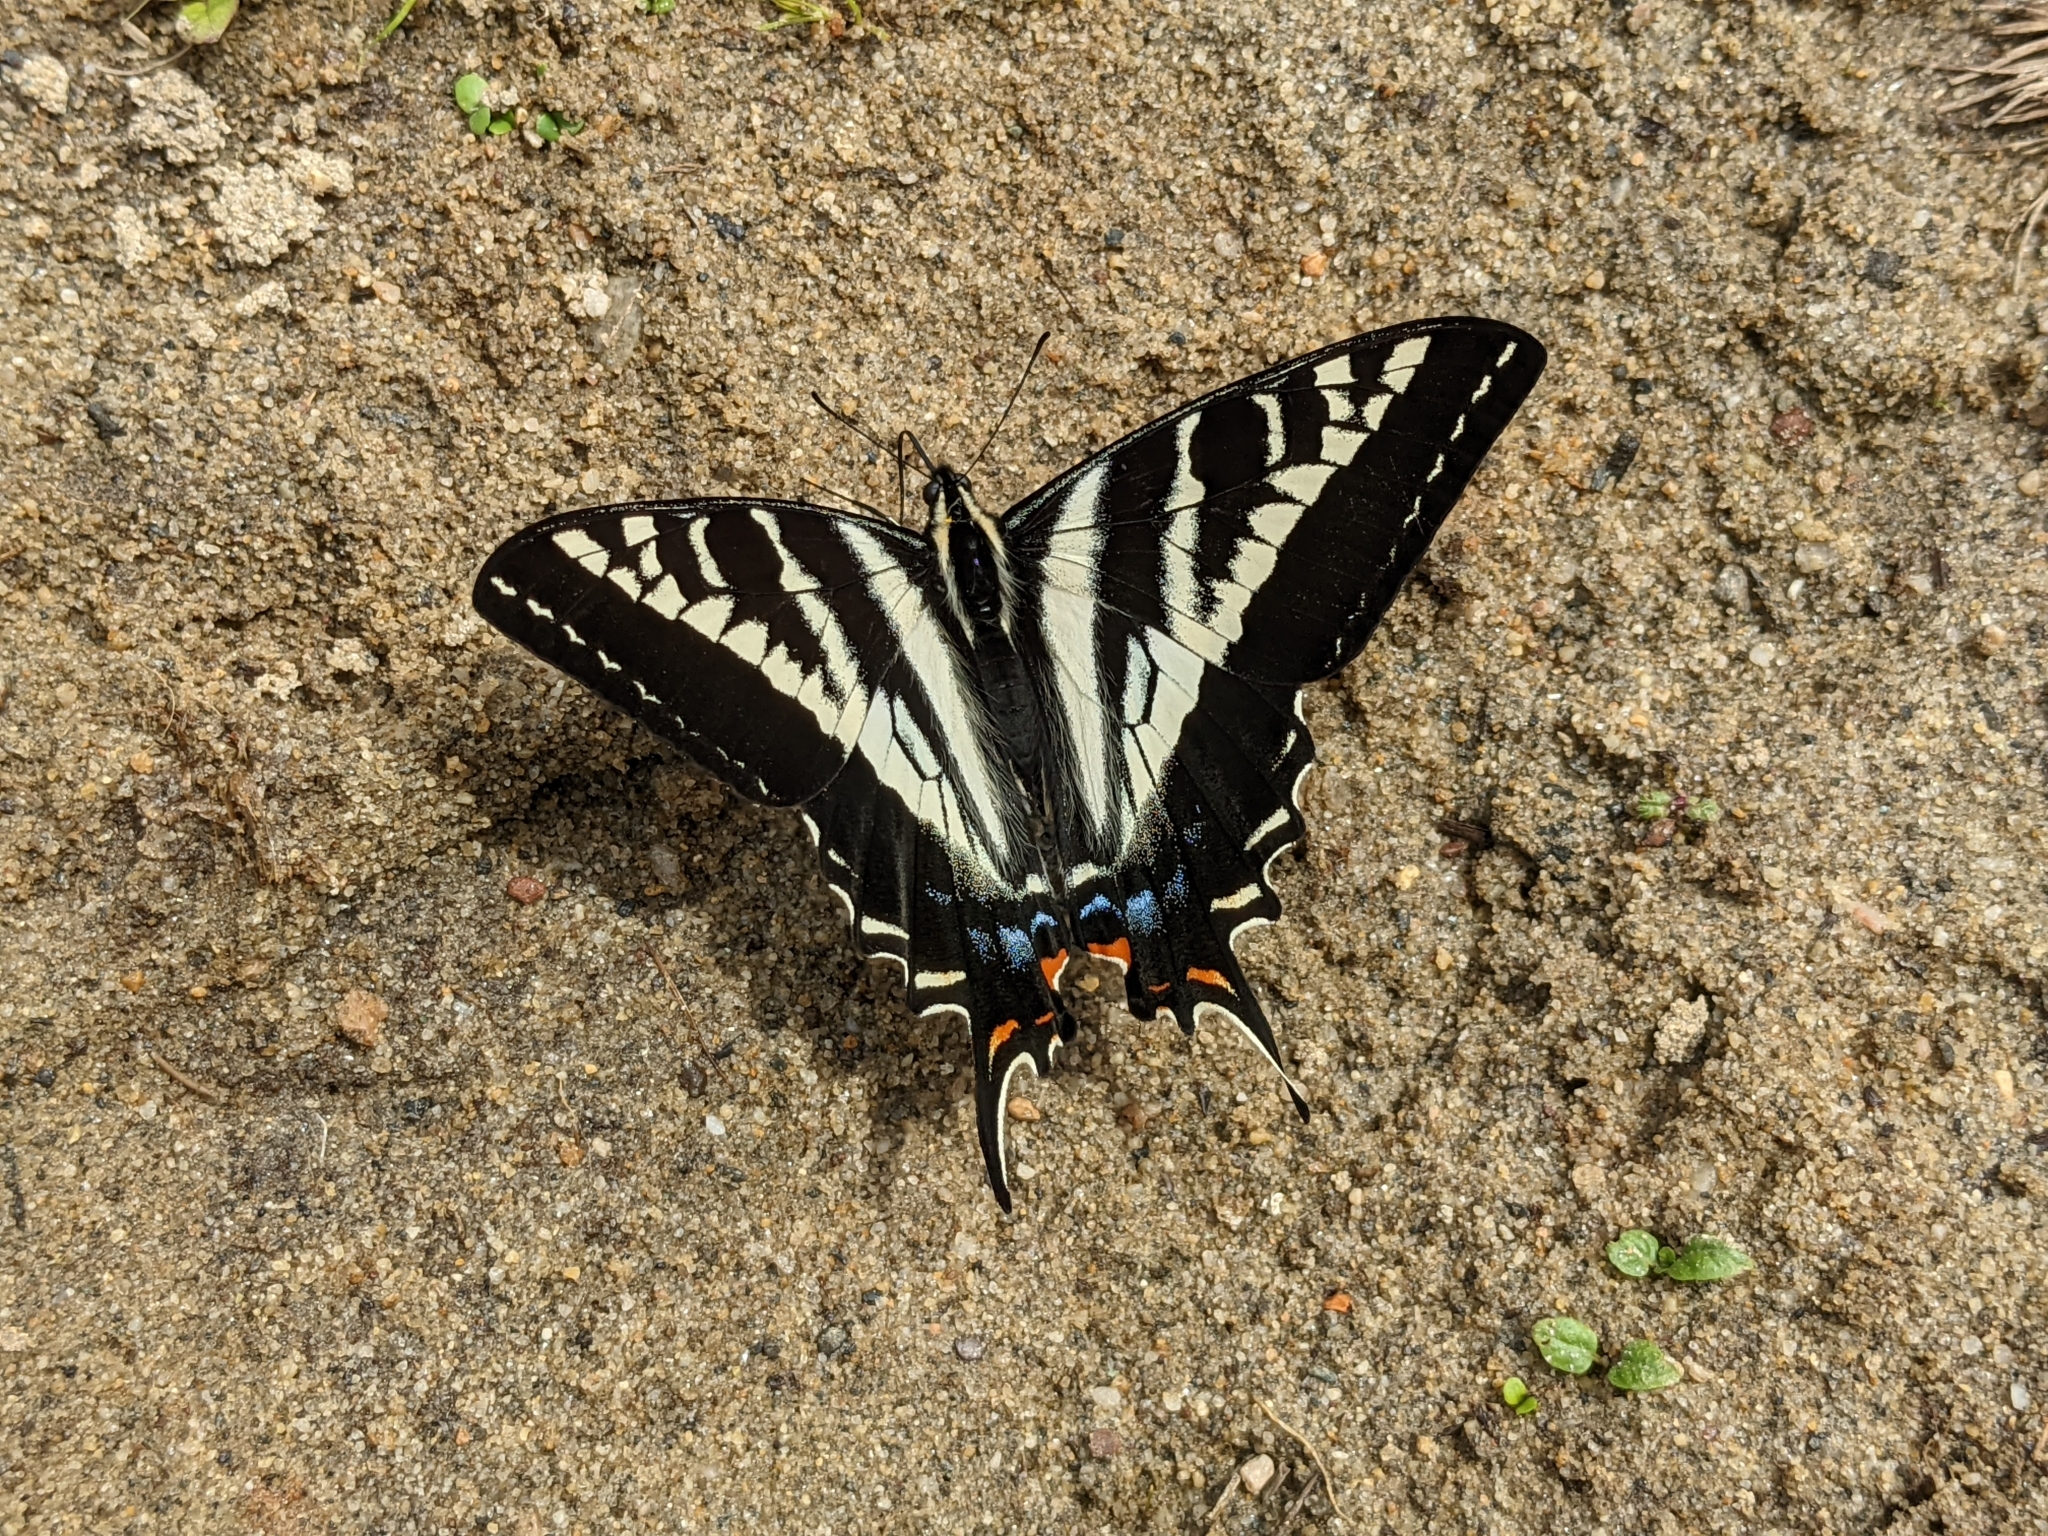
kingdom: Animalia
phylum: Arthropoda
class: Insecta
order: Lepidoptera
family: Papilionidae
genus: Papilio
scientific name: Papilio eurymedon
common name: Pale tiger swallowtail
